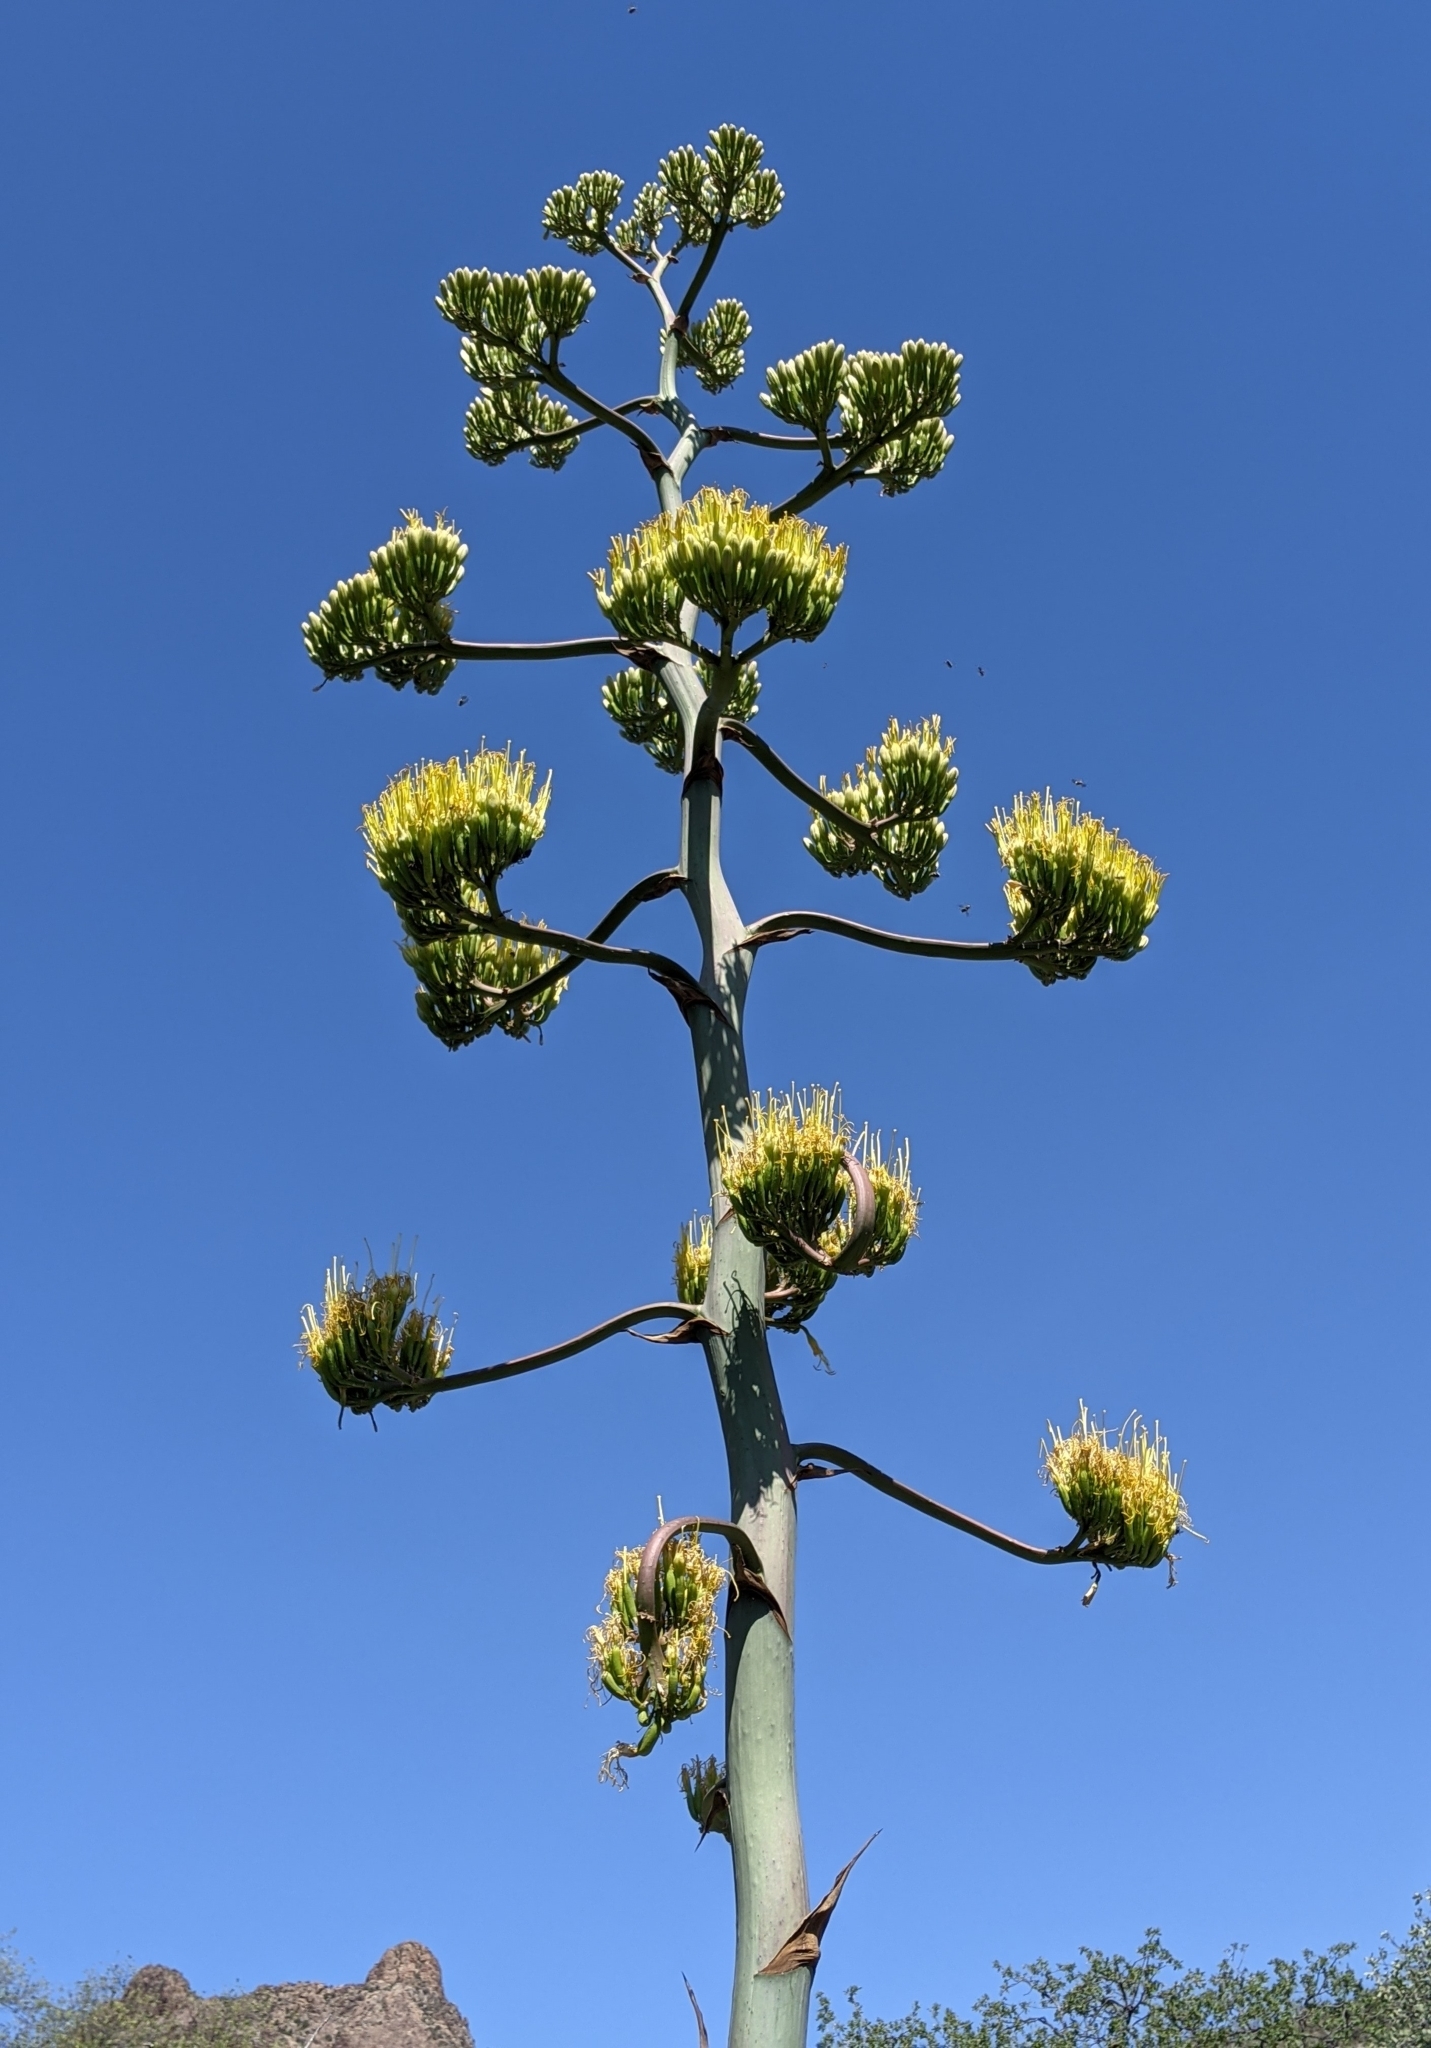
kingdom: Plantae
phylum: Tracheophyta
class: Liliopsida
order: Asparagales
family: Asparagaceae
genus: Agave
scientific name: Agave havardiana
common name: Havard agave
